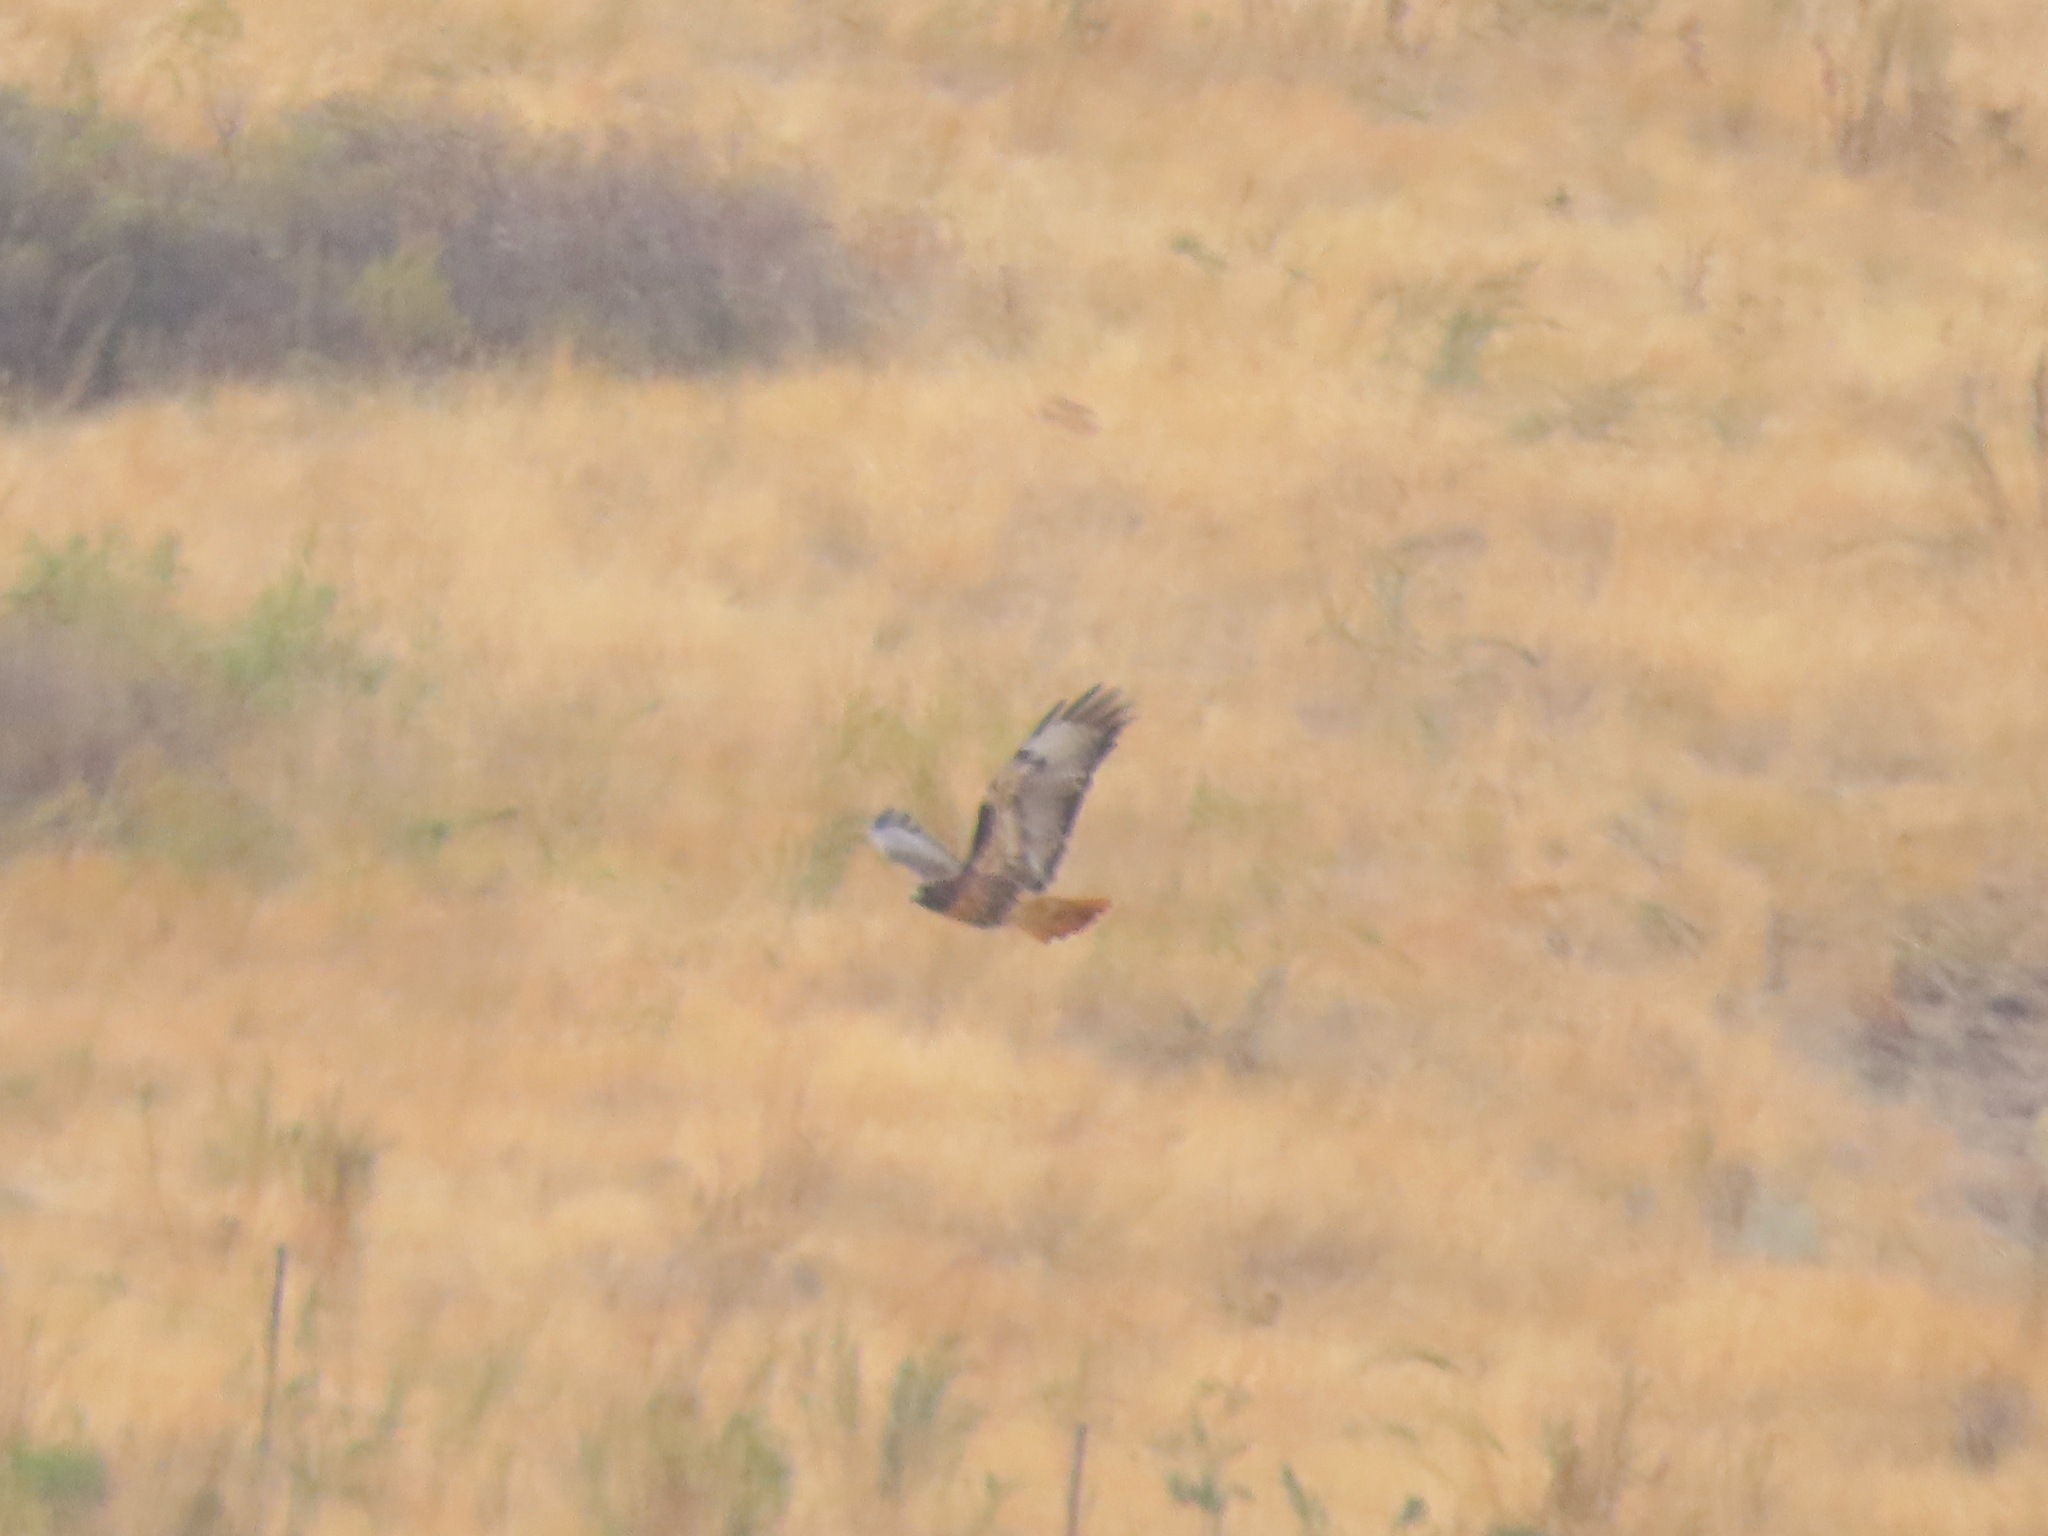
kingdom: Animalia
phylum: Chordata
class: Aves
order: Accipitriformes
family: Accipitridae
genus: Buteo
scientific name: Buteo jamaicensis
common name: Red-tailed hawk
